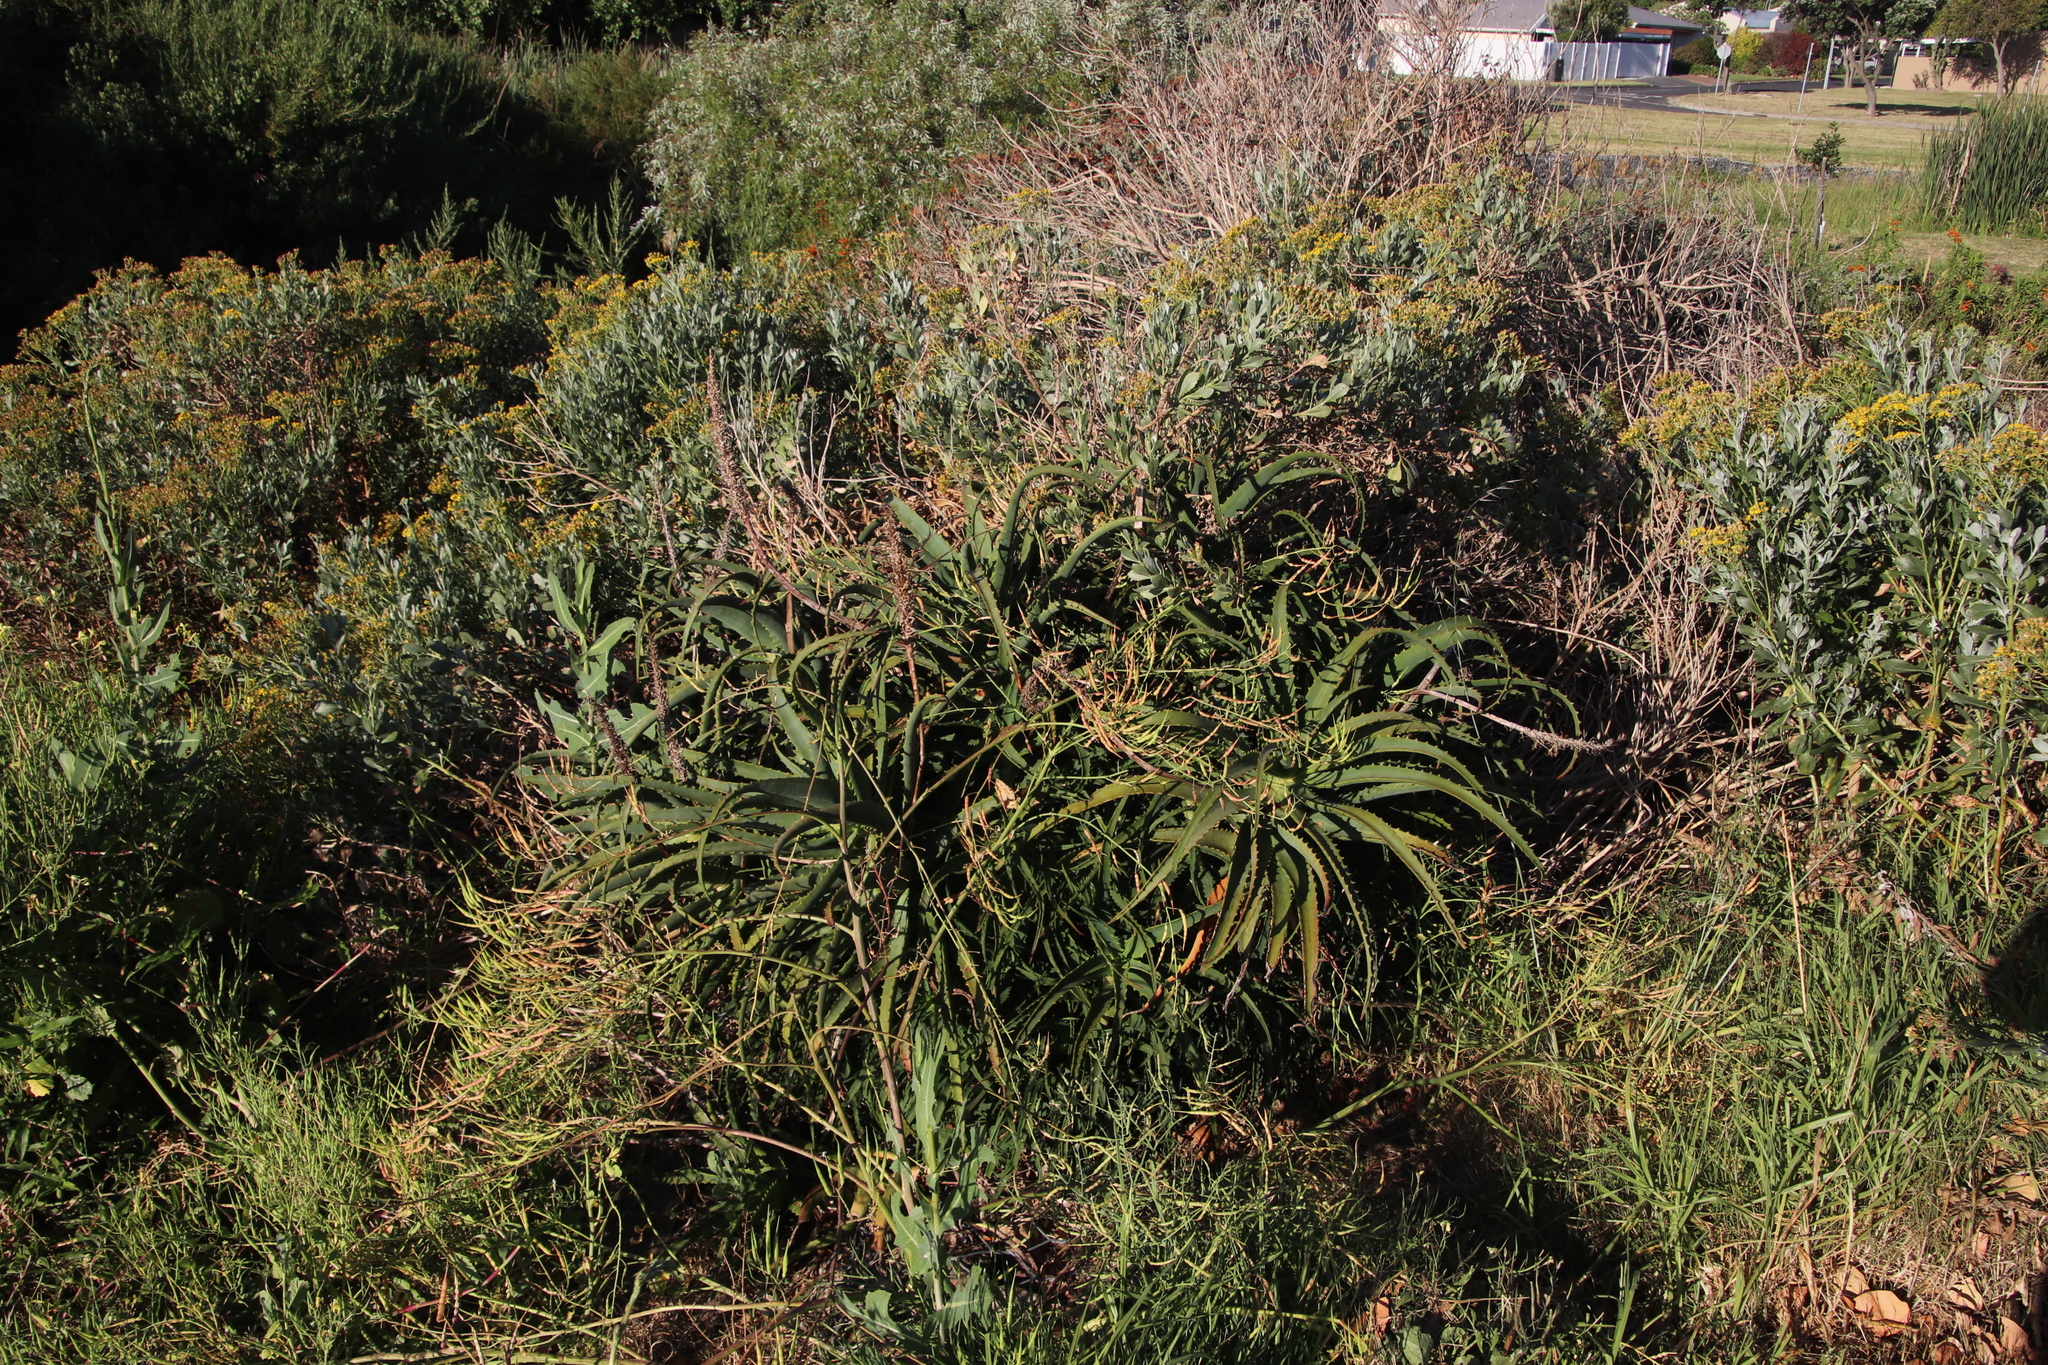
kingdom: Plantae
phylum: Tracheophyta
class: Liliopsida
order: Asparagales
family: Asphodelaceae
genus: Aloe
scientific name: Aloe arborescens
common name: Candelabra aloe
